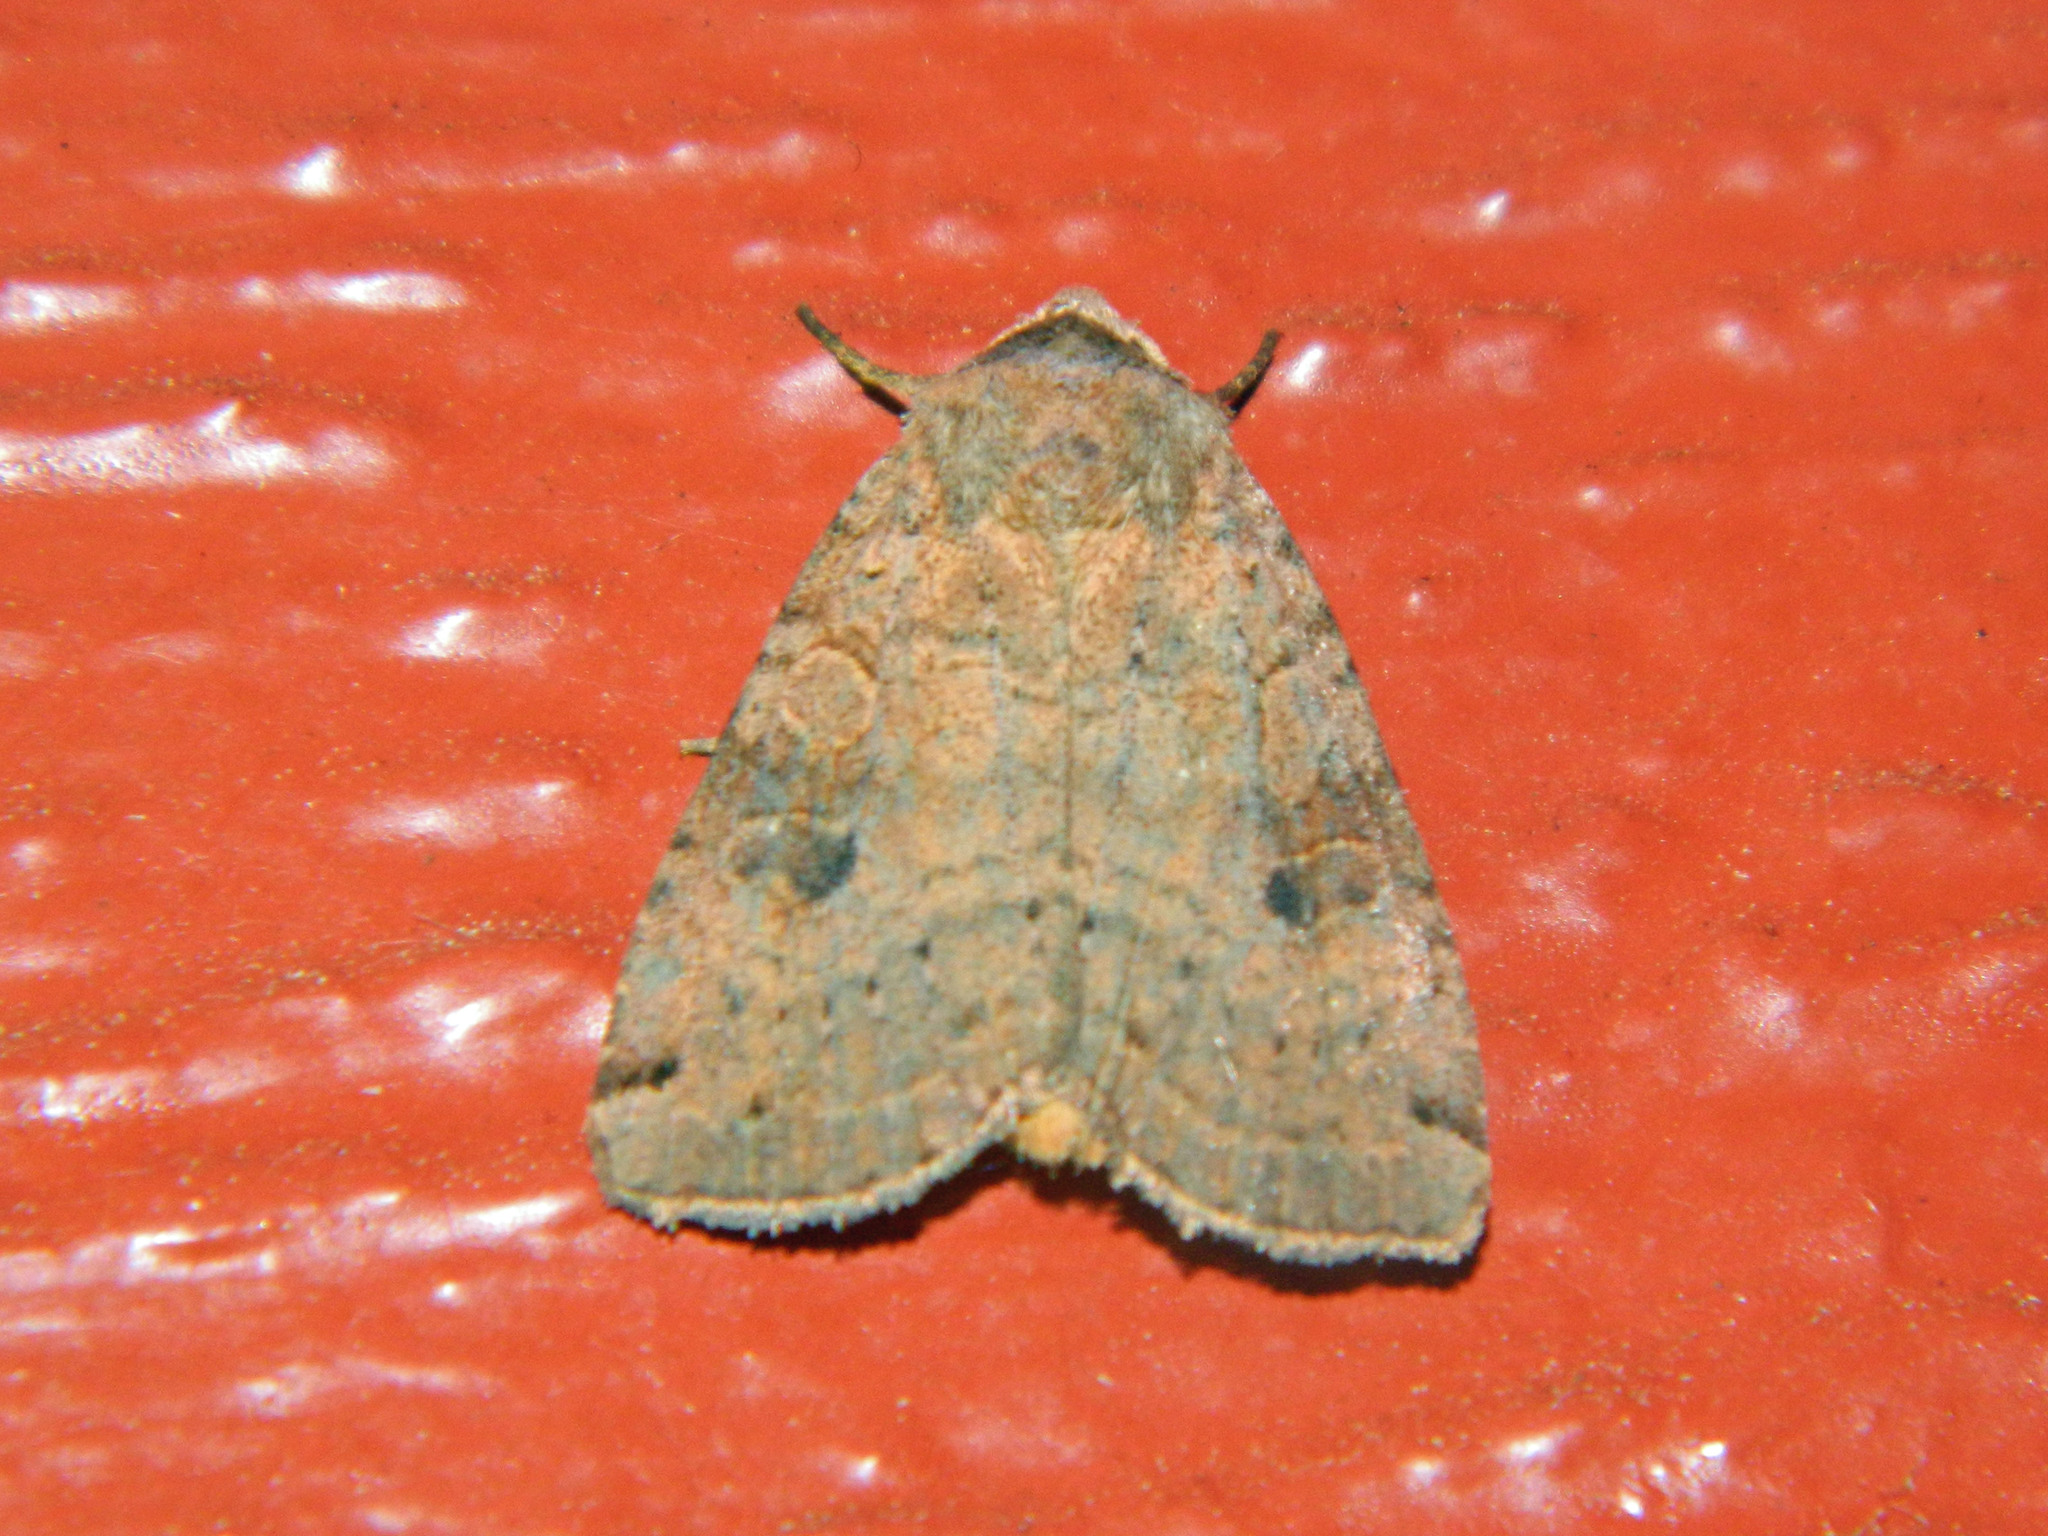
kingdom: Animalia
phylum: Arthropoda
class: Insecta
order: Lepidoptera
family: Noctuidae
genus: Xestia
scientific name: Xestia smithii
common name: Smith's dart
